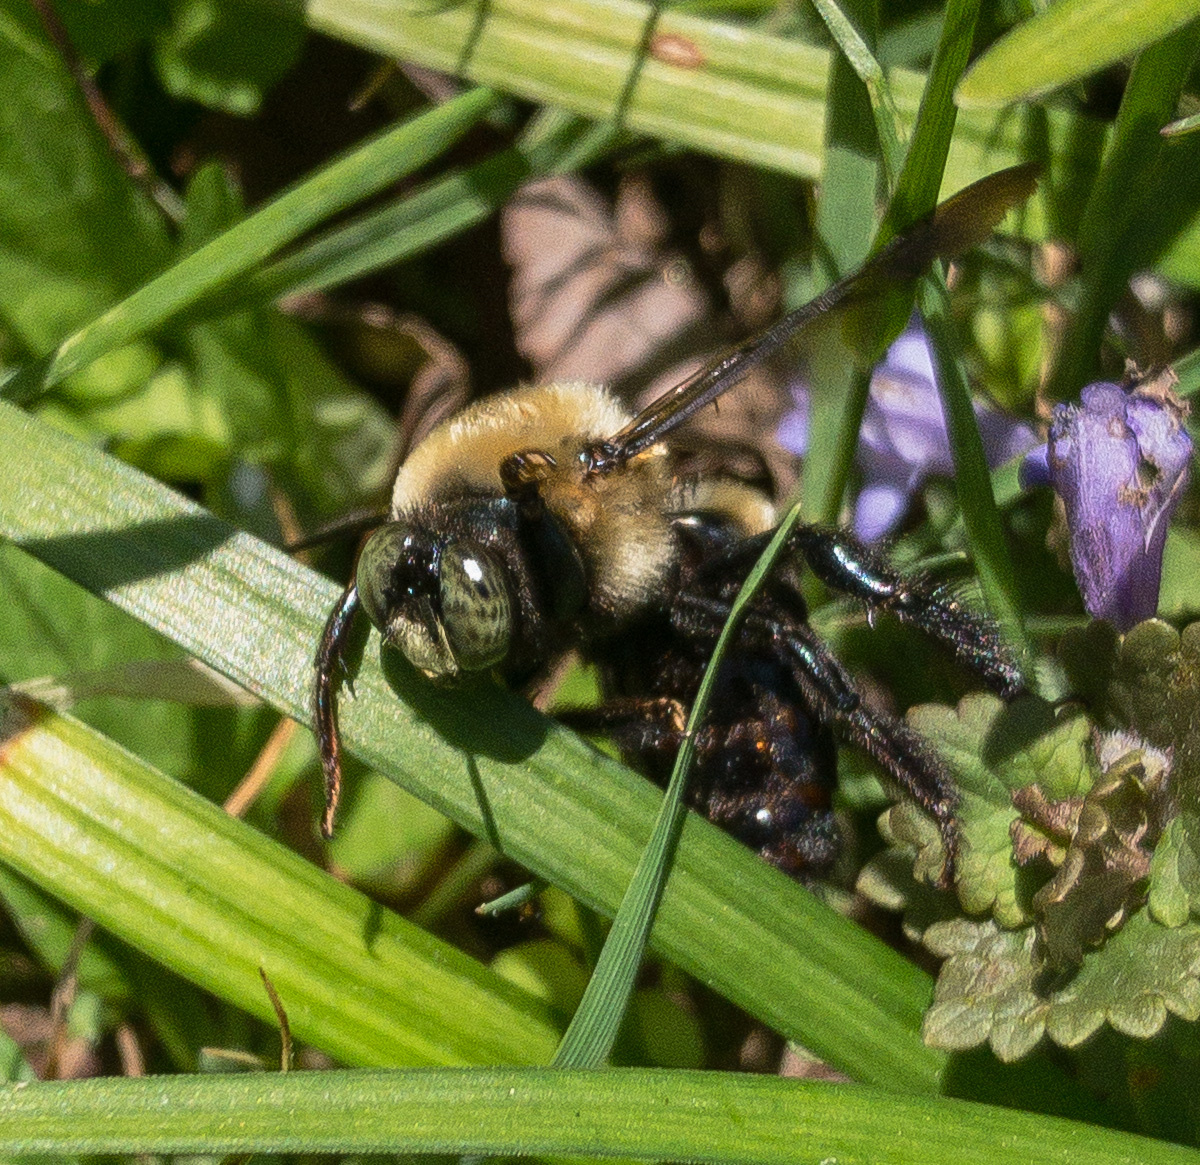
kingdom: Animalia
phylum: Arthropoda
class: Insecta
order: Hymenoptera
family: Apidae
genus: Xylocopa
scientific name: Xylocopa virginica
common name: Carpenter bee
